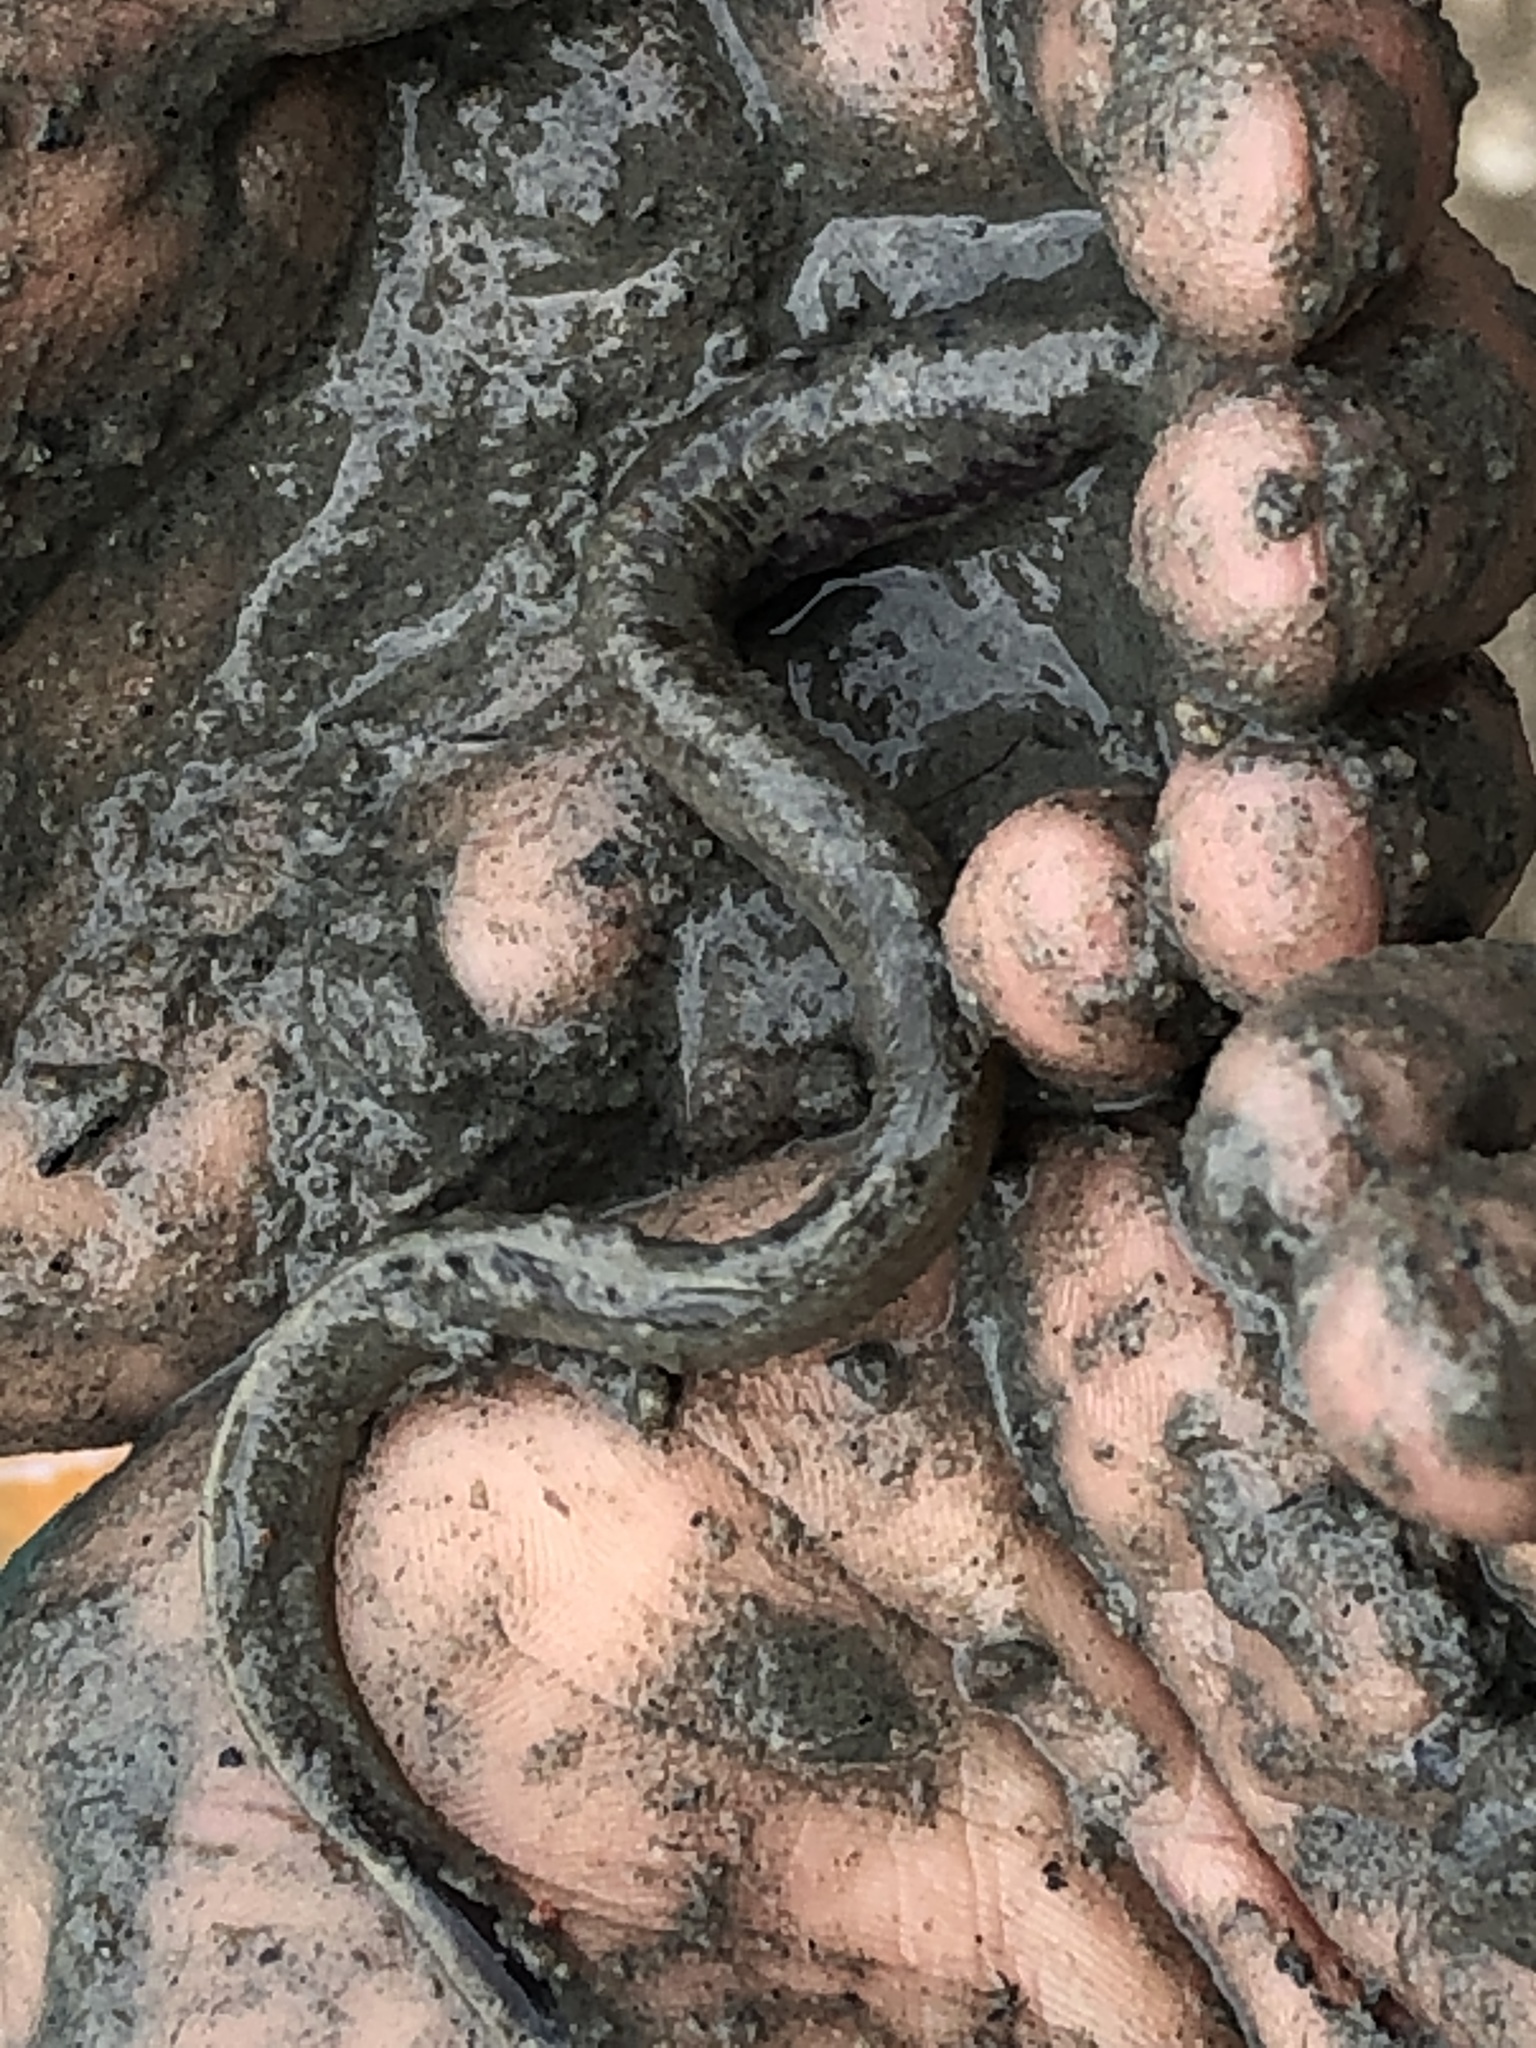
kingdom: Animalia
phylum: Chordata
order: Anguilliformes
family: Anguillidae
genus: Anguilla
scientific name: Anguilla rostrata
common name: American eel
